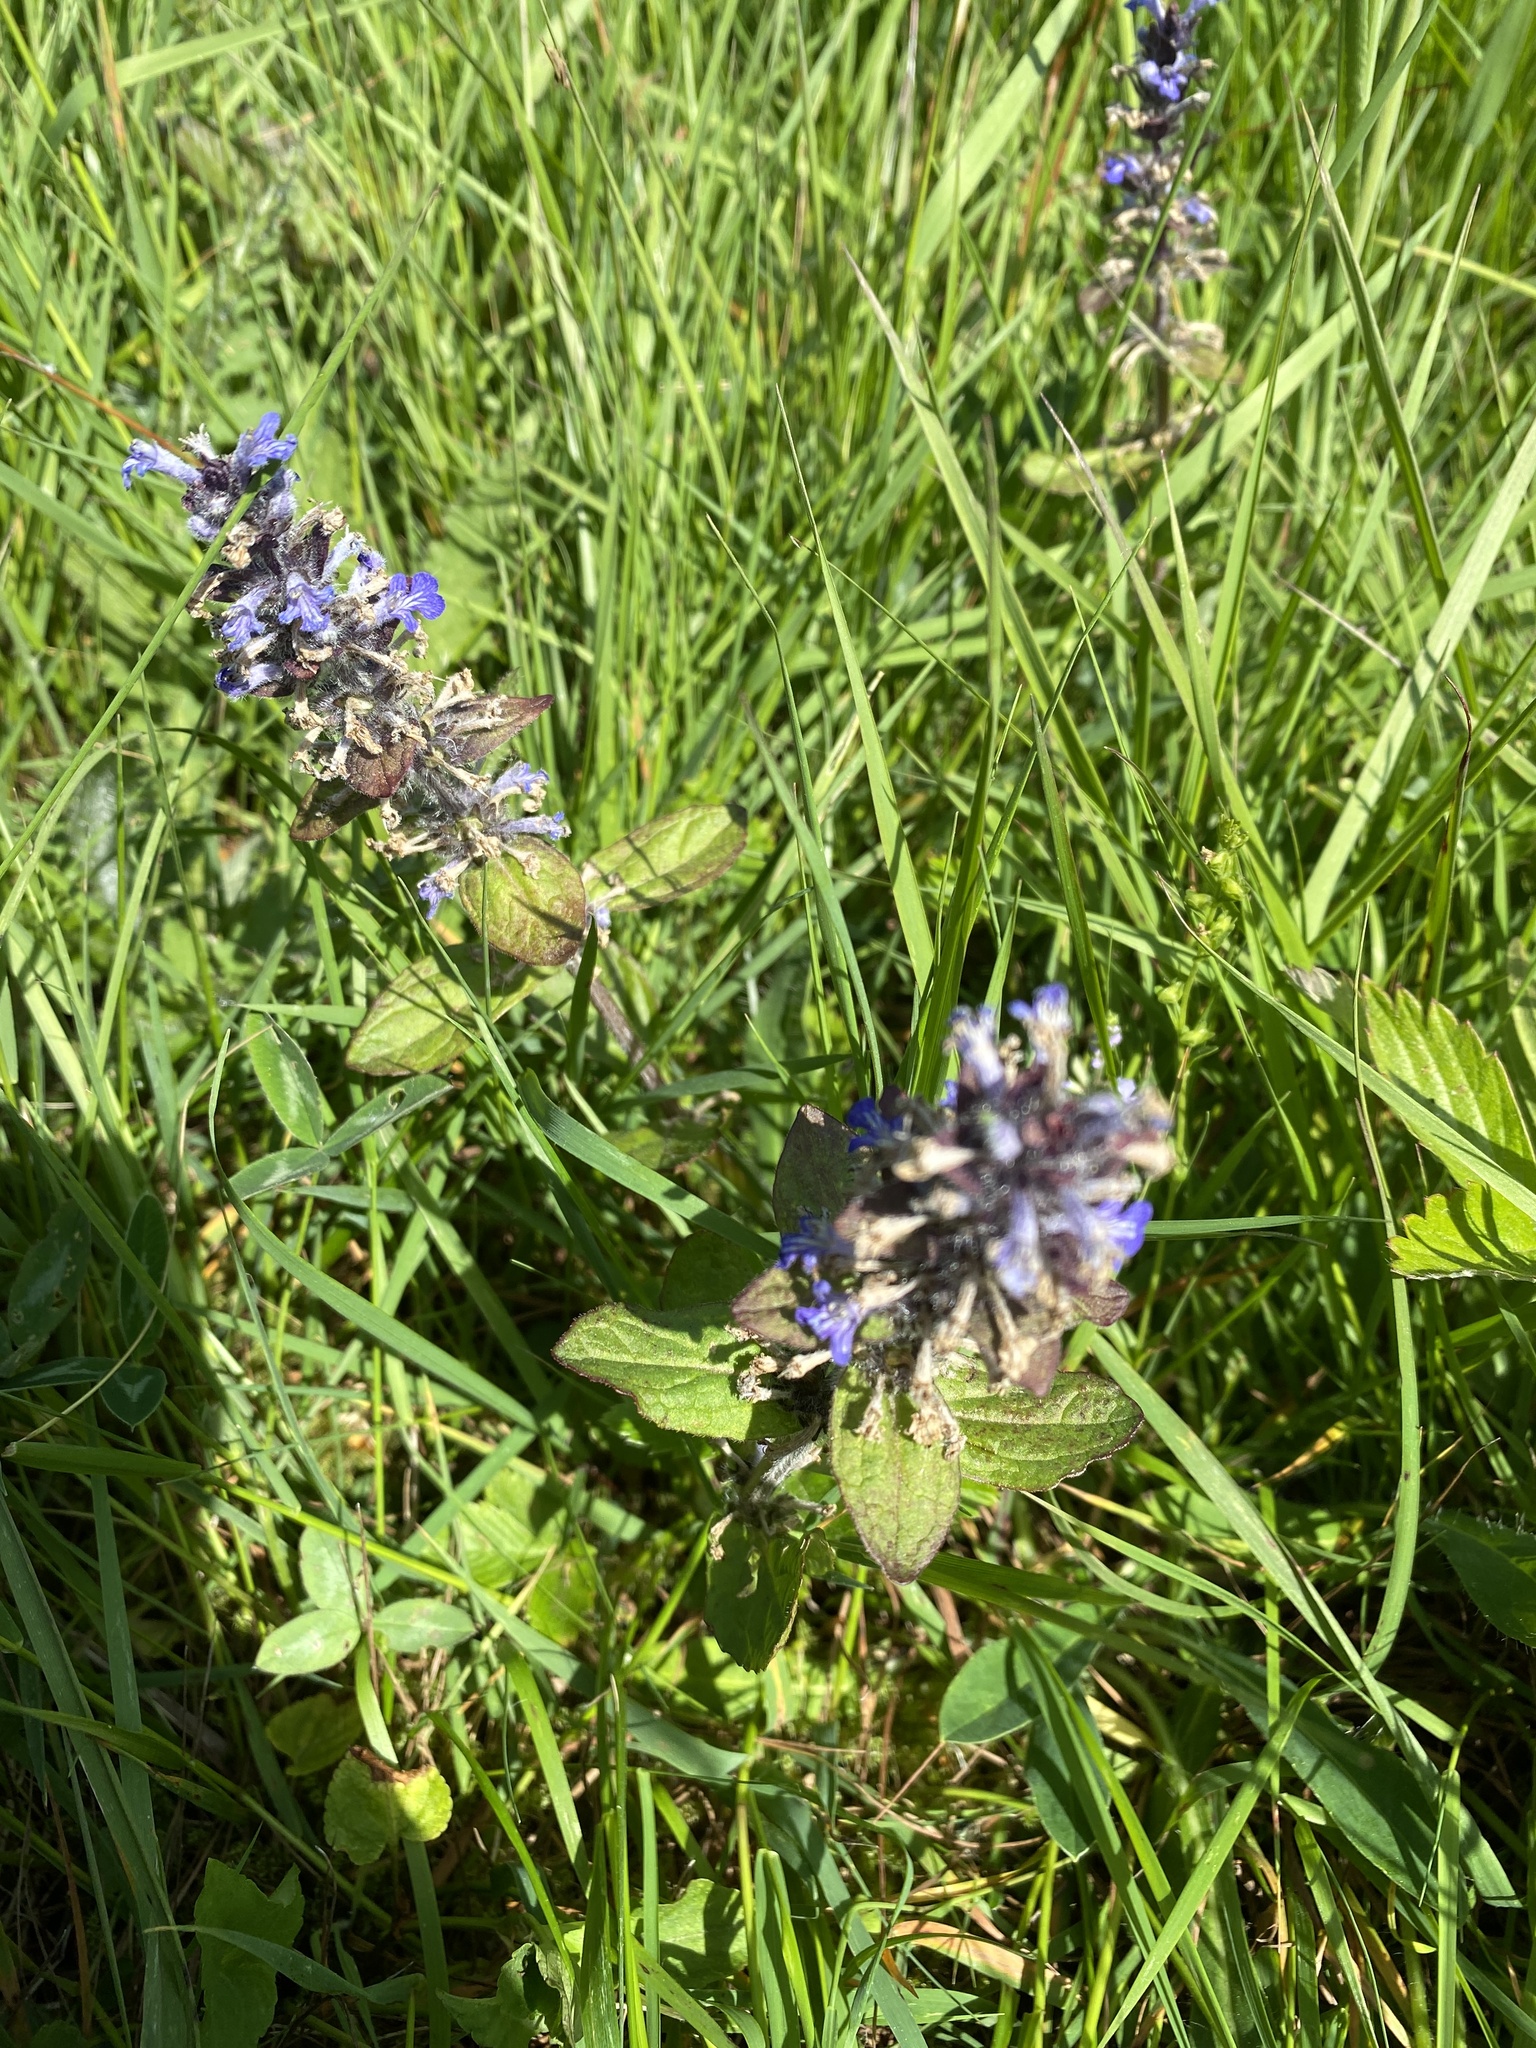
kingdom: Plantae
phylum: Tracheophyta
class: Magnoliopsida
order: Lamiales
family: Lamiaceae
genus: Ajuga
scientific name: Ajuga reptans
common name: Bugle
